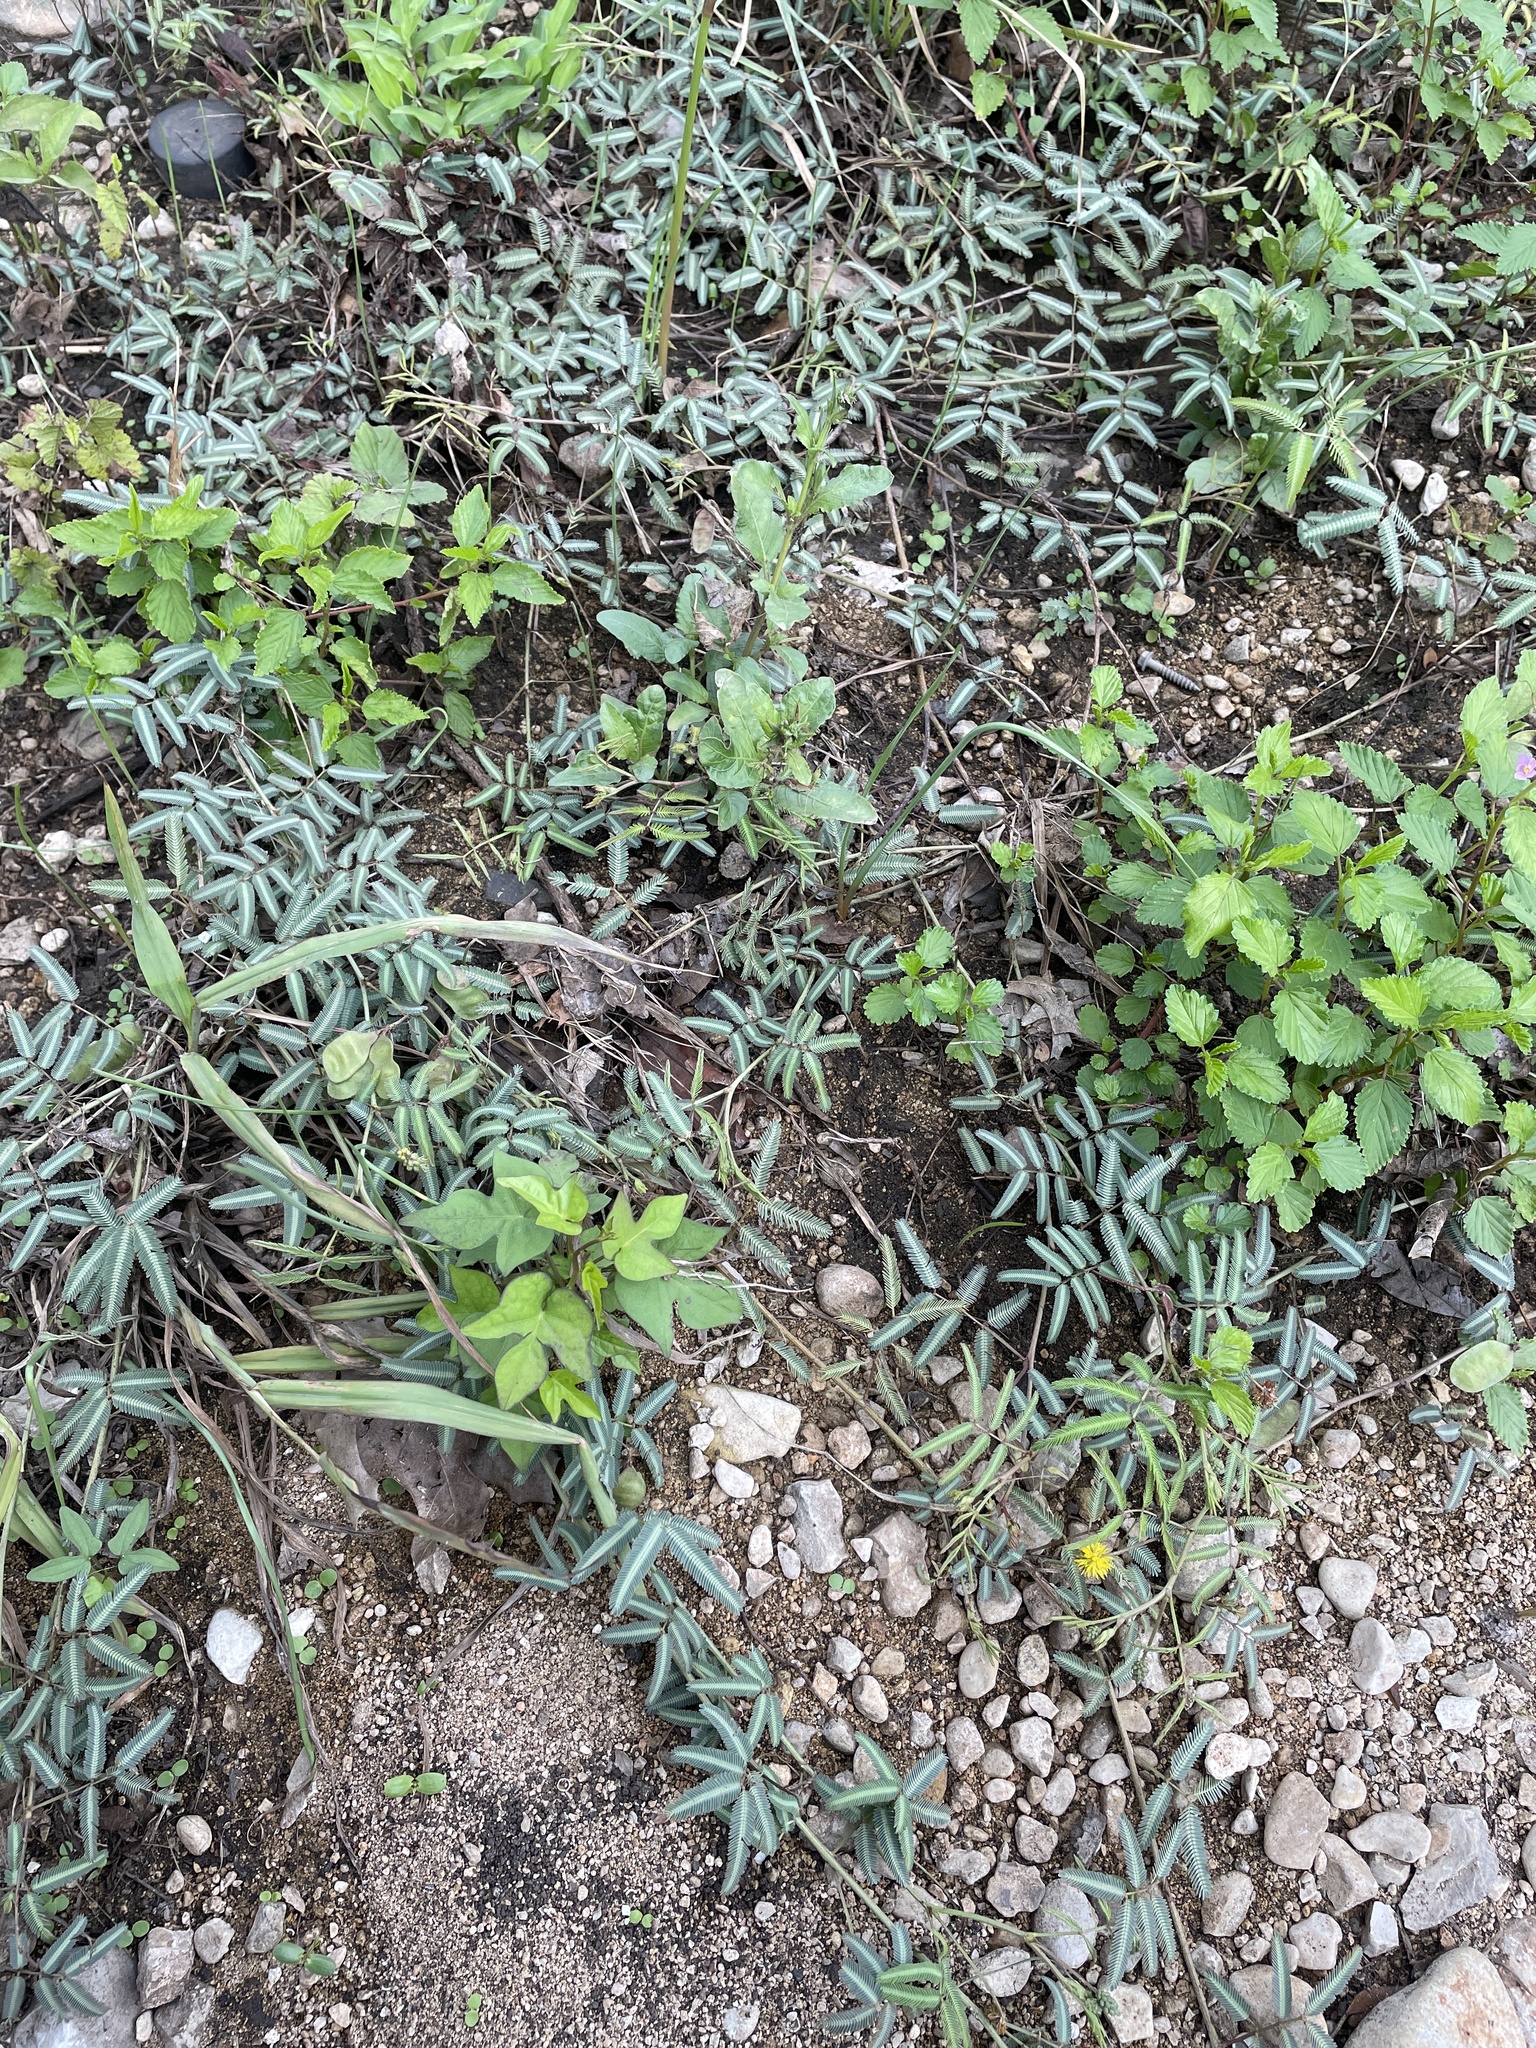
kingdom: Plantae
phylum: Tracheophyta
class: Magnoliopsida
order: Fabales
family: Fabaceae
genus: Neptunia
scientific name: Neptunia pubescens
